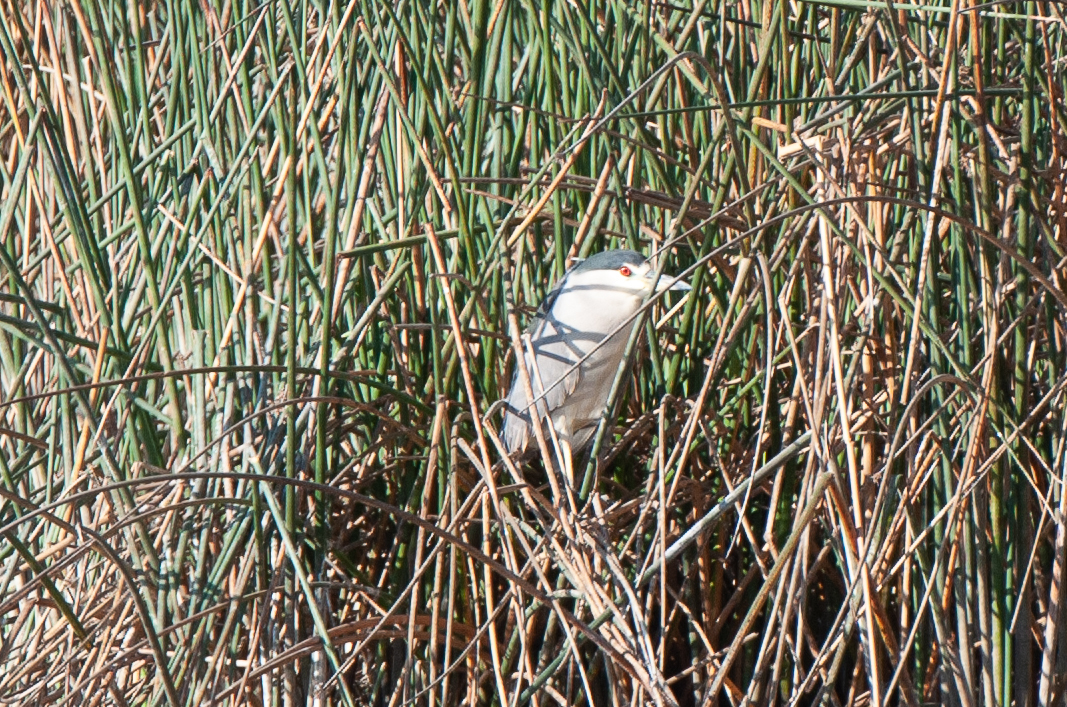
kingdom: Animalia
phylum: Chordata
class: Aves
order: Pelecaniformes
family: Ardeidae
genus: Nycticorax
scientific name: Nycticorax nycticorax
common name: Black-crowned night heron
